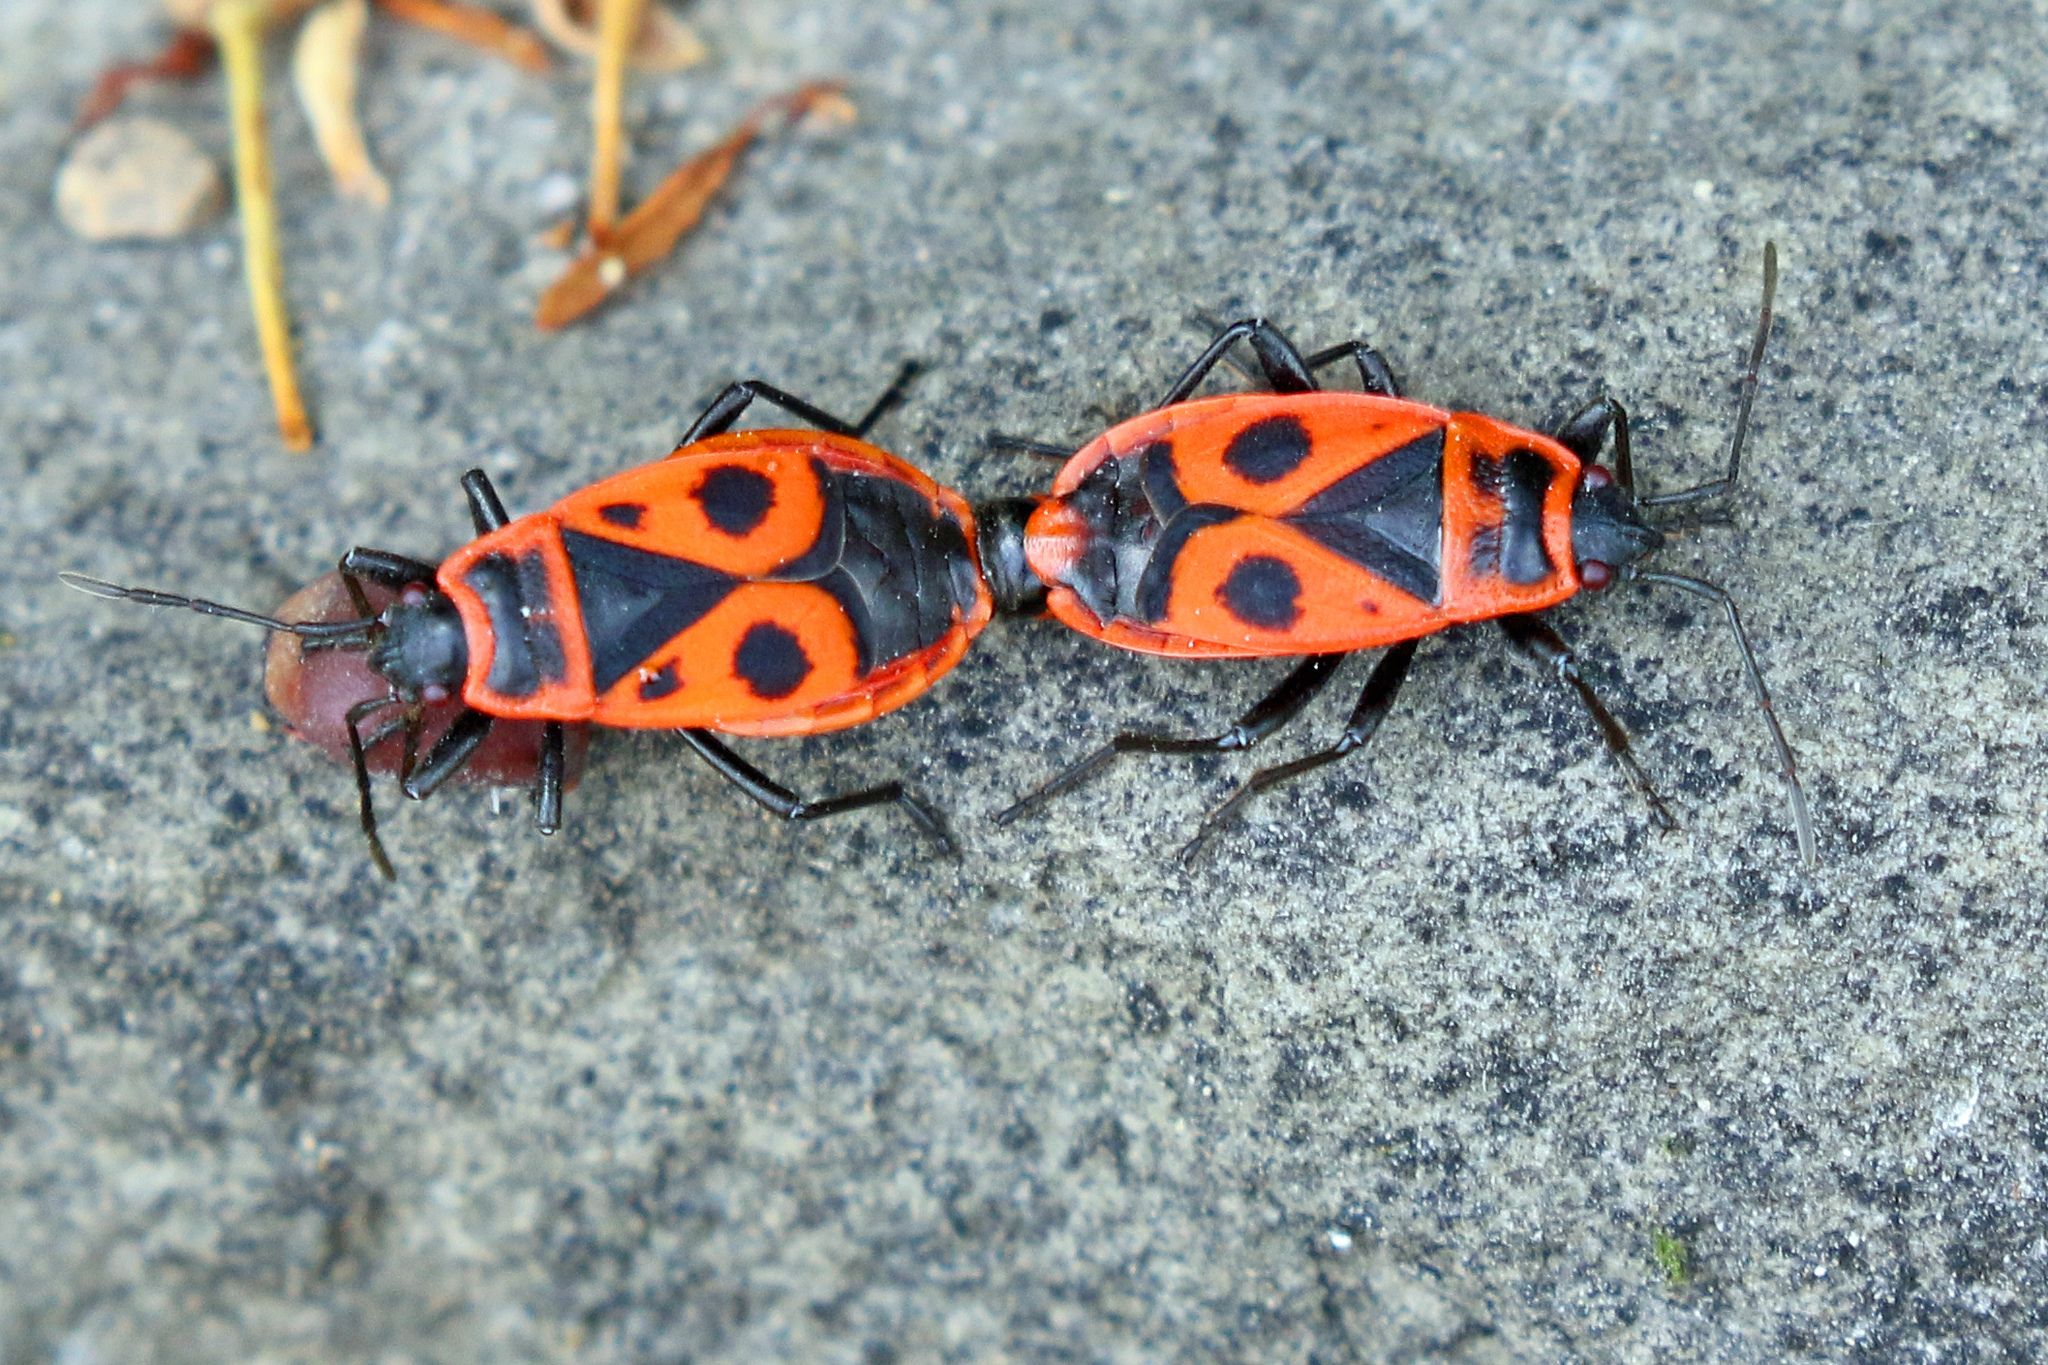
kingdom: Animalia
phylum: Arthropoda
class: Insecta
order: Hemiptera
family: Pyrrhocoridae
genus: Pyrrhocoris
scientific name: Pyrrhocoris apterus
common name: Firebug
